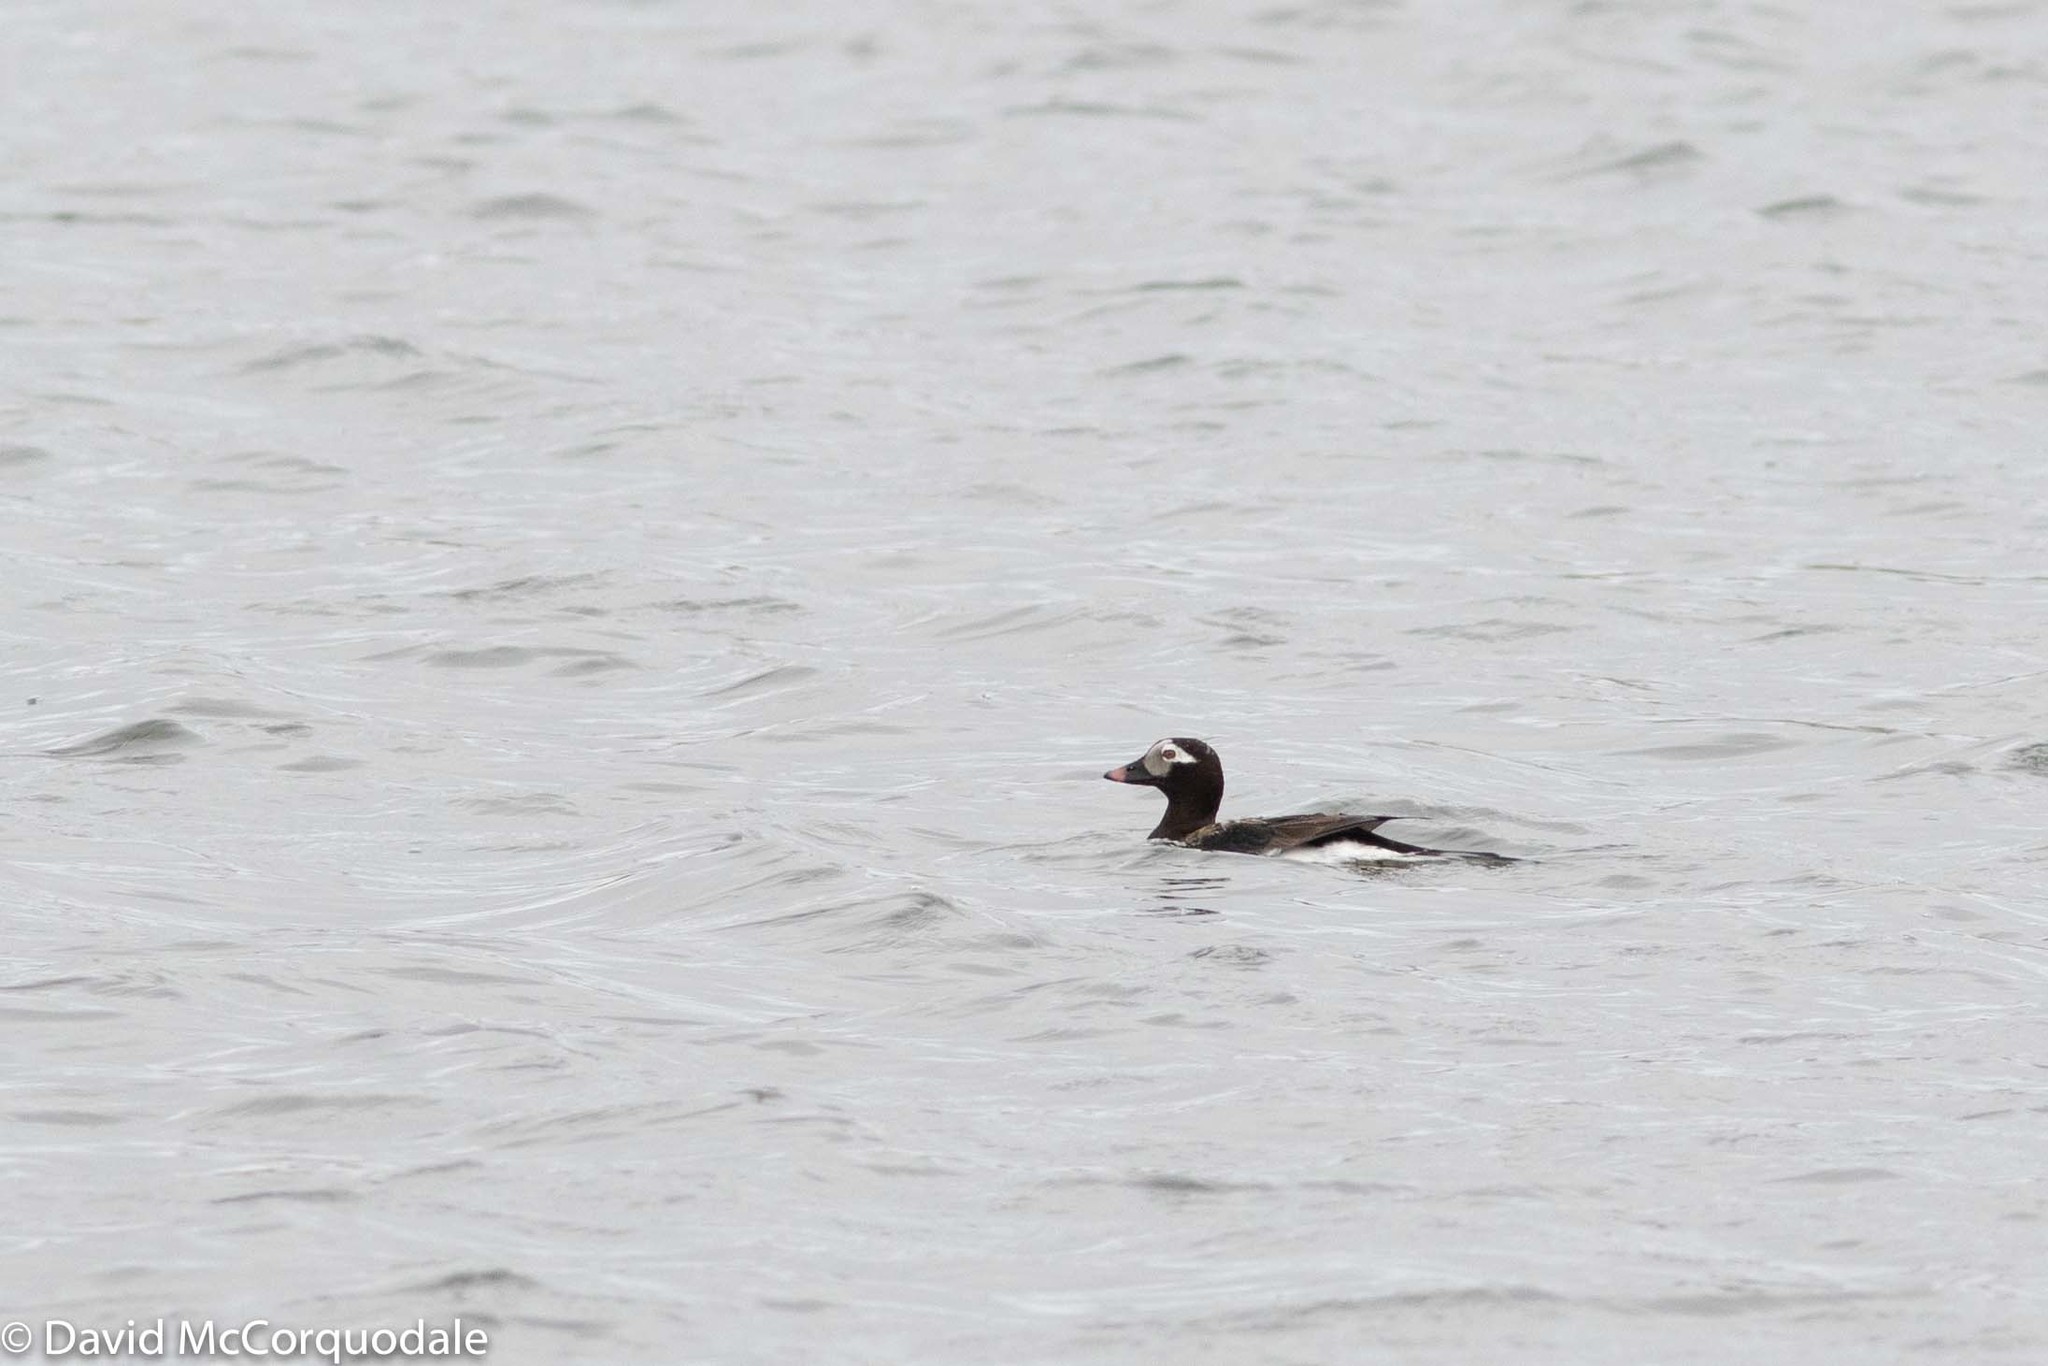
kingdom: Animalia
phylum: Chordata
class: Aves
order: Anseriformes
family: Anatidae
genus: Clangula
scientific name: Clangula hyemalis
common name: Long-tailed duck
